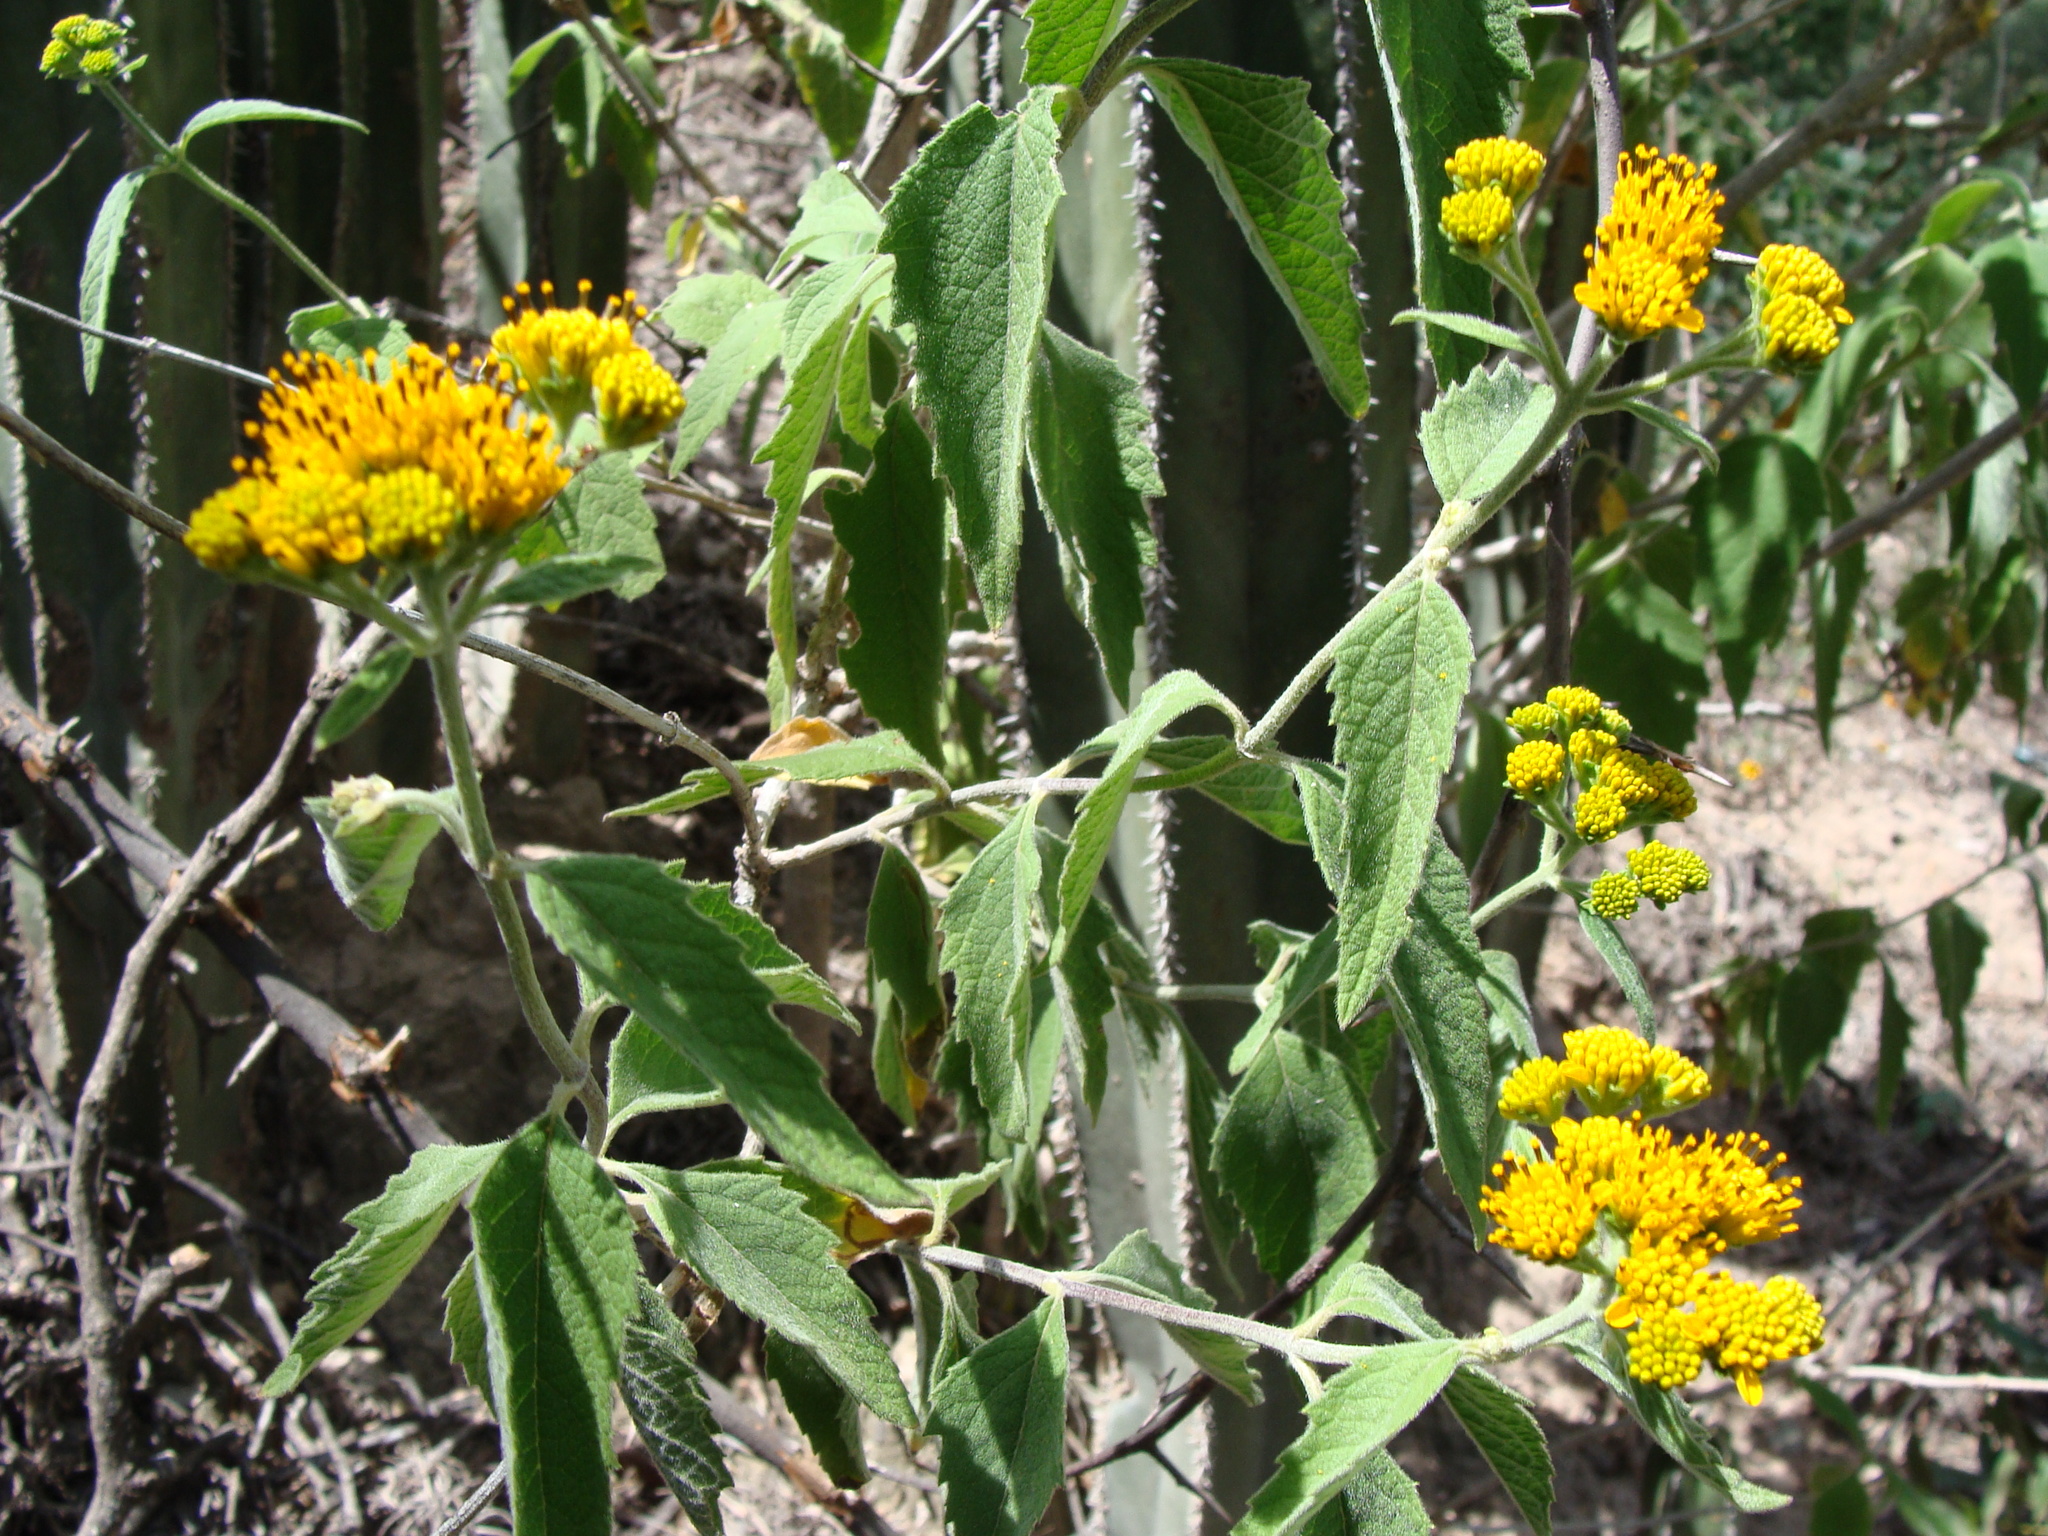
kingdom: Plantae
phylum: Tracheophyta
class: Magnoliopsida
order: Asterales
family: Asteraceae
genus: Verbesina
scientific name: Verbesina serrata
